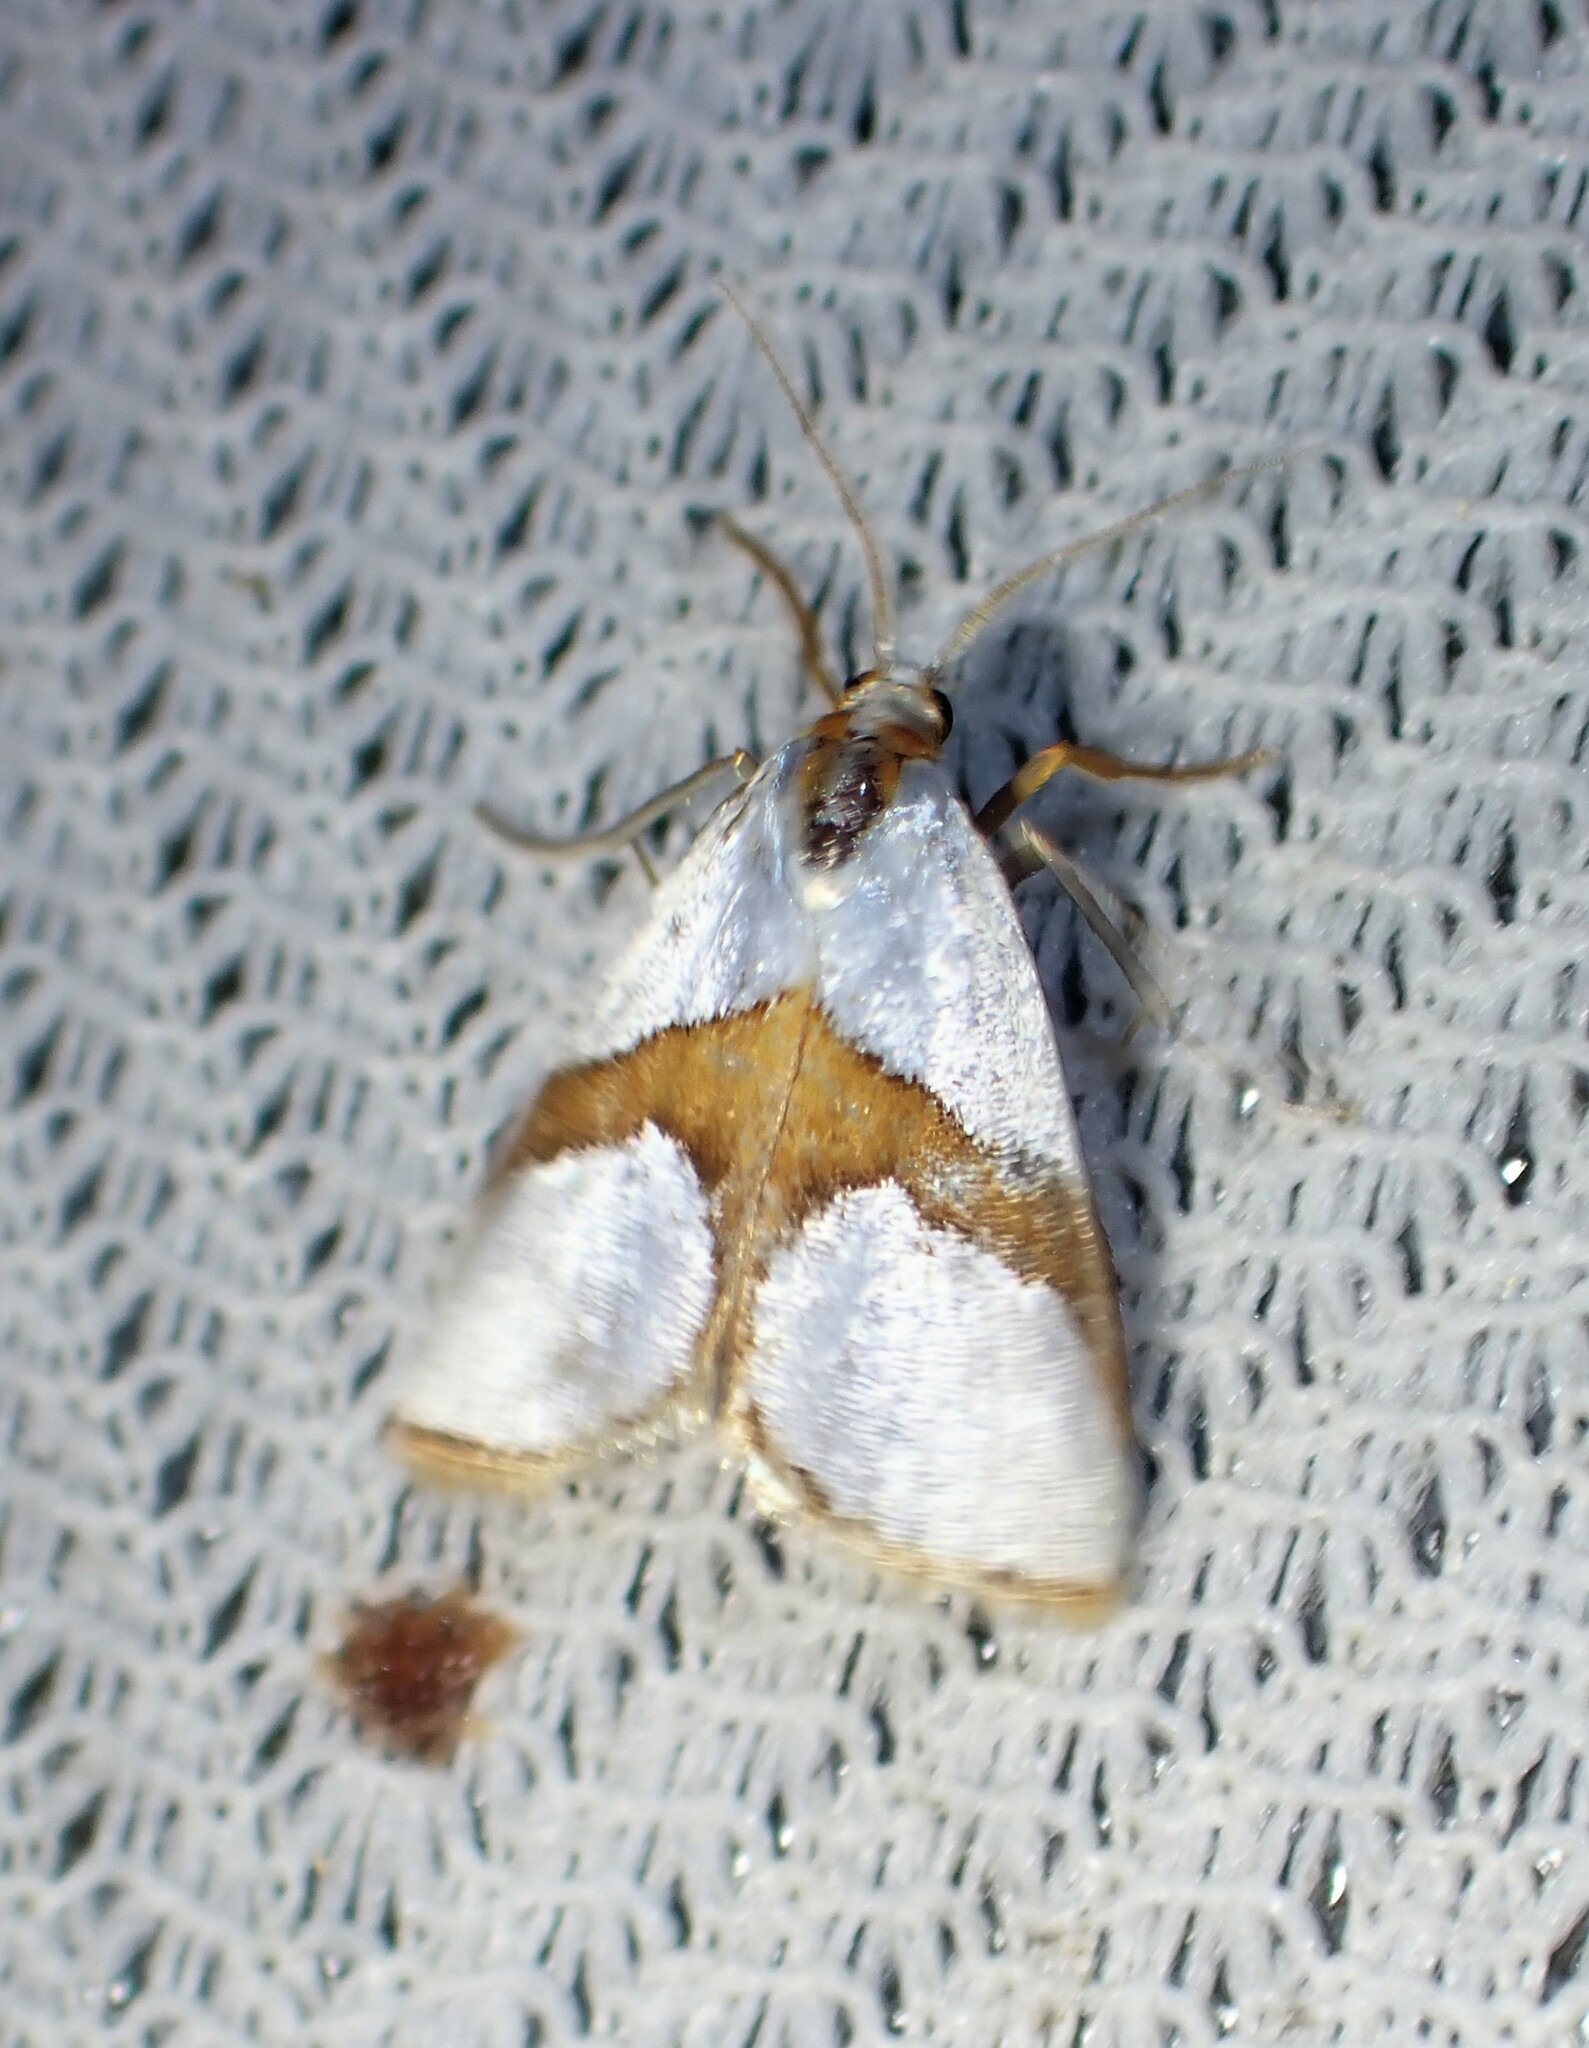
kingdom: Animalia
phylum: Arthropoda
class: Insecta
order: Lepidoptera
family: Crambidae
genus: Argyria
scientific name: Argyria auratella
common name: Curve-lined argyria moth
